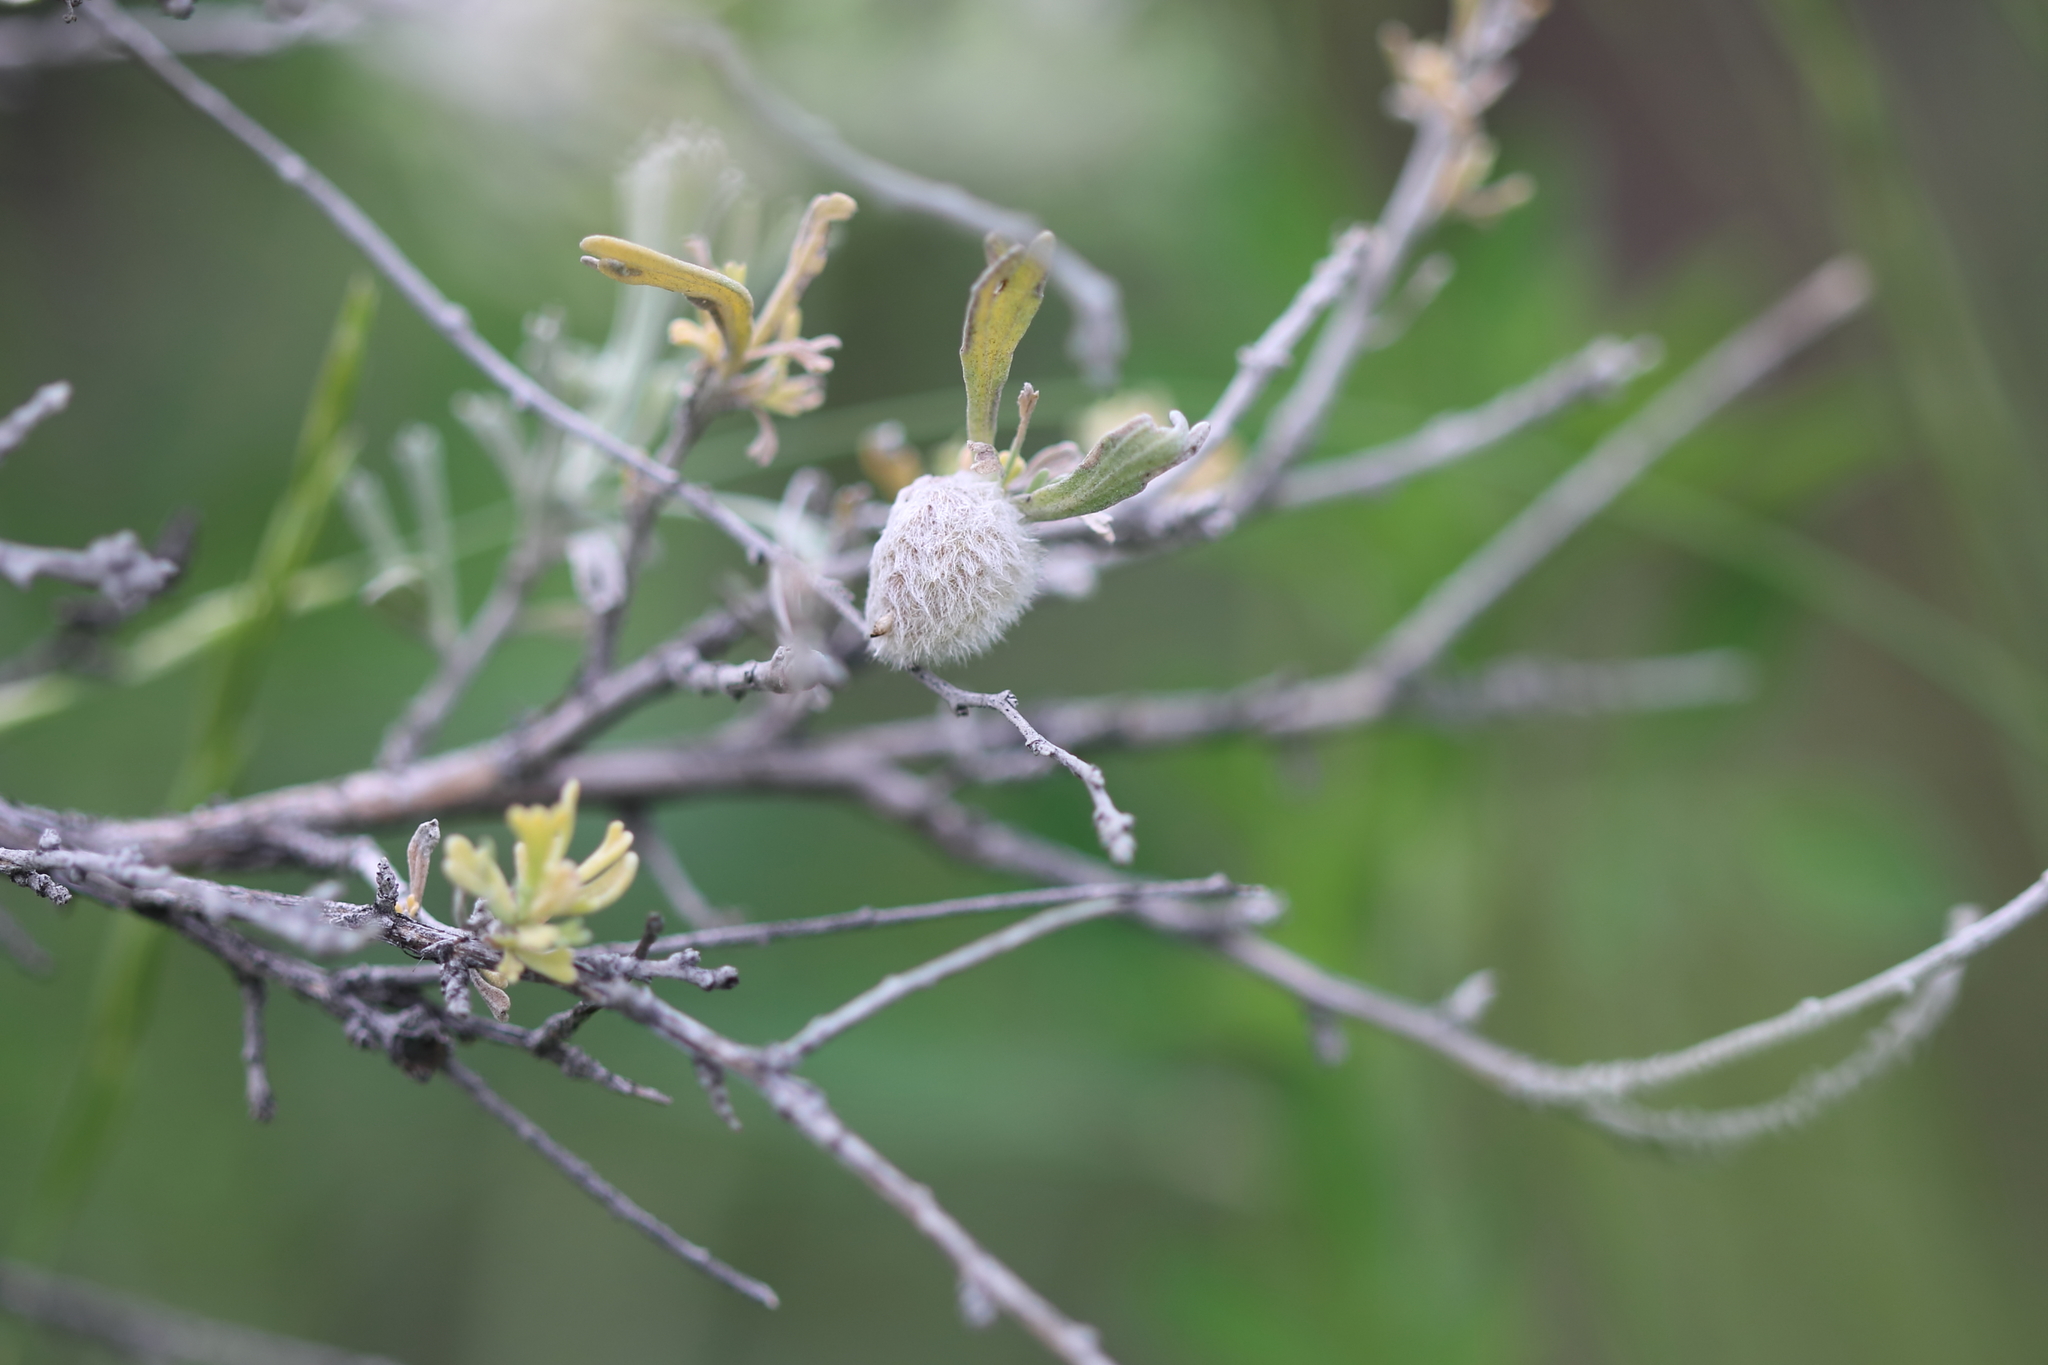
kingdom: Animalia
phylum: Arthropoda
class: Insecta
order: Diptera
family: Cecidomyiidae
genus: Rhopalomyia
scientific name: Rhopalomyia hirtipomum
